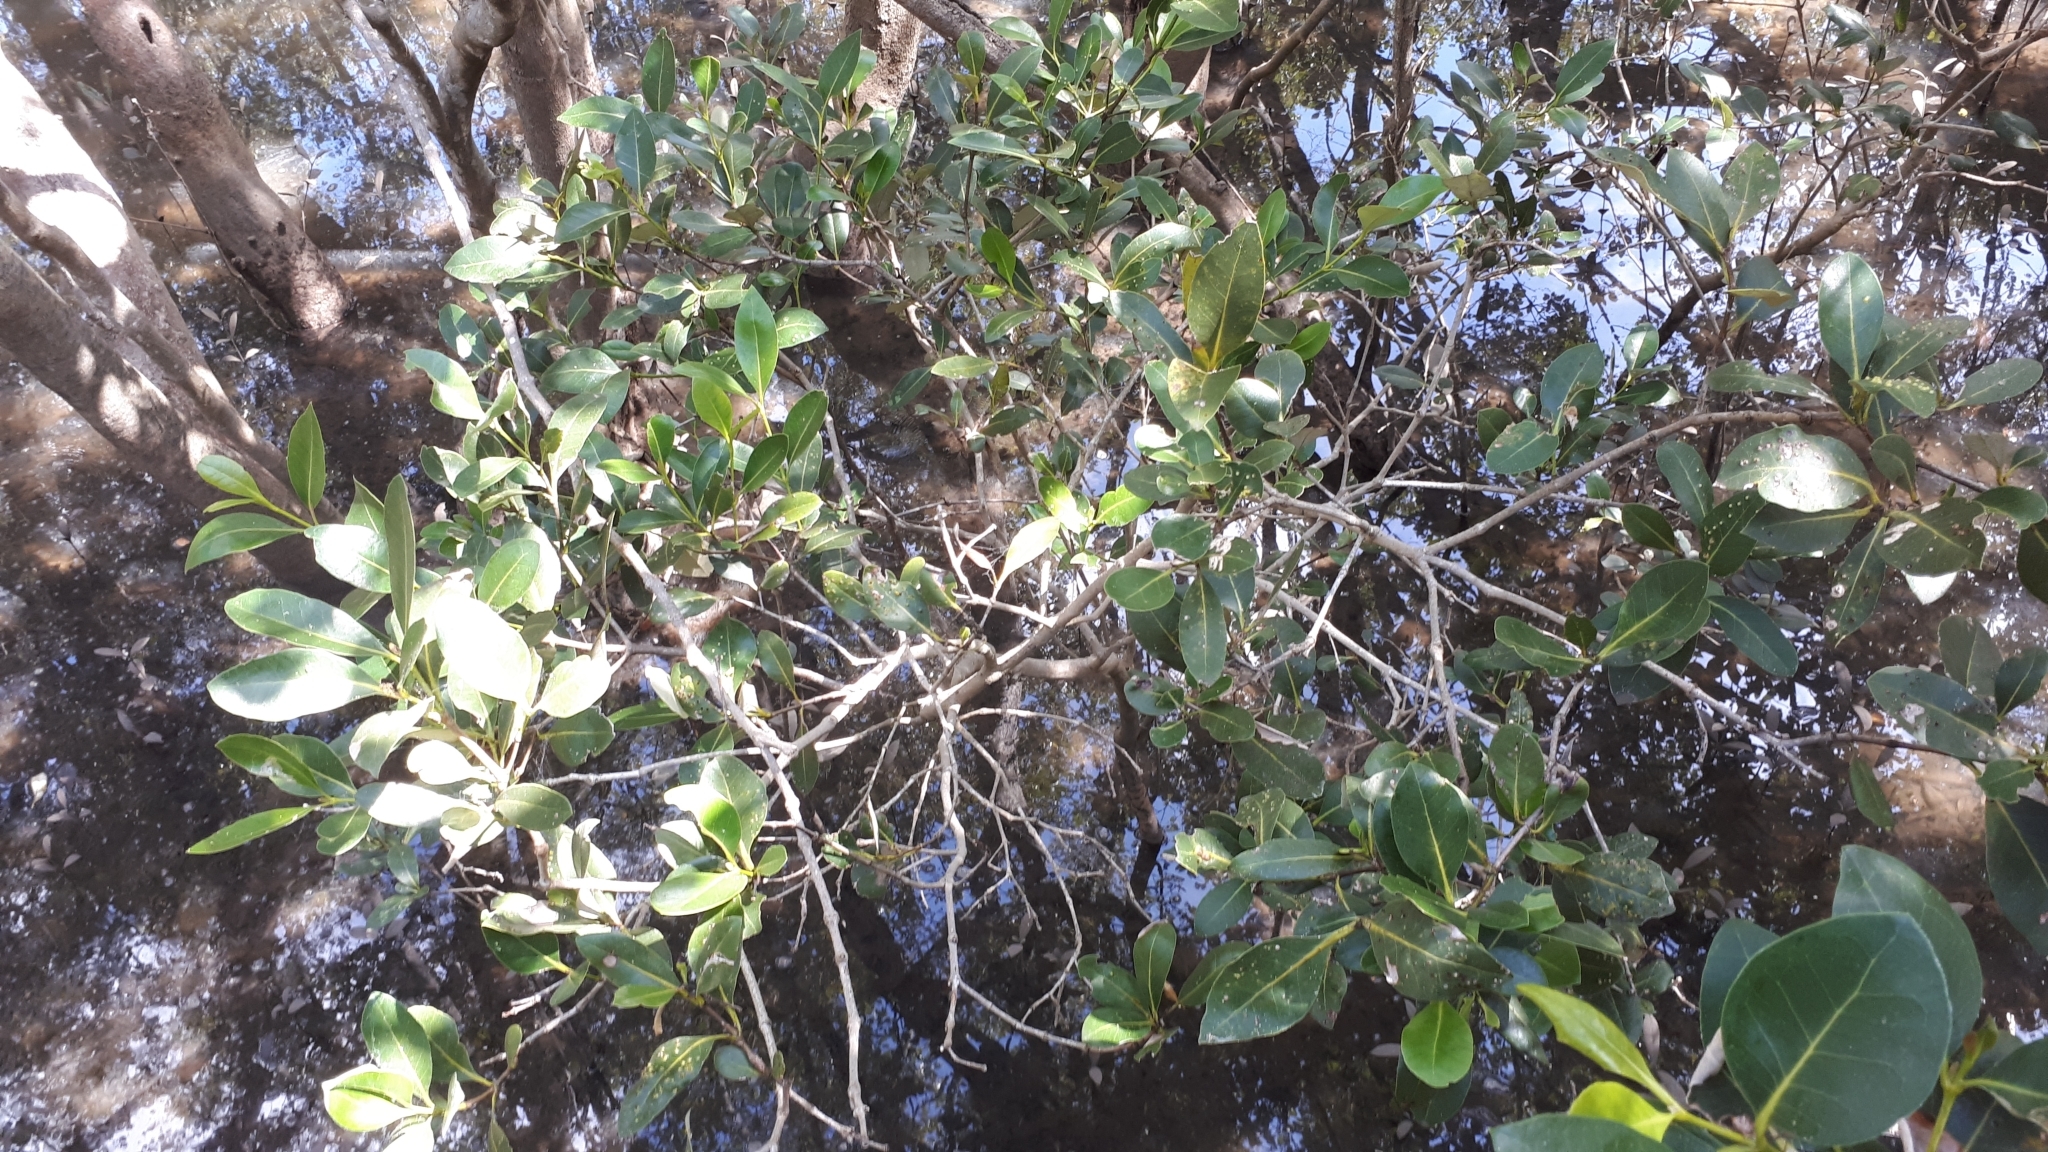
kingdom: Plantae
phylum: Tracheophyta
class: Magnoliopsida
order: Lamiales
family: Acanthaceae
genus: Avicennia
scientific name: Avicennia marina
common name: Gray mangrove
